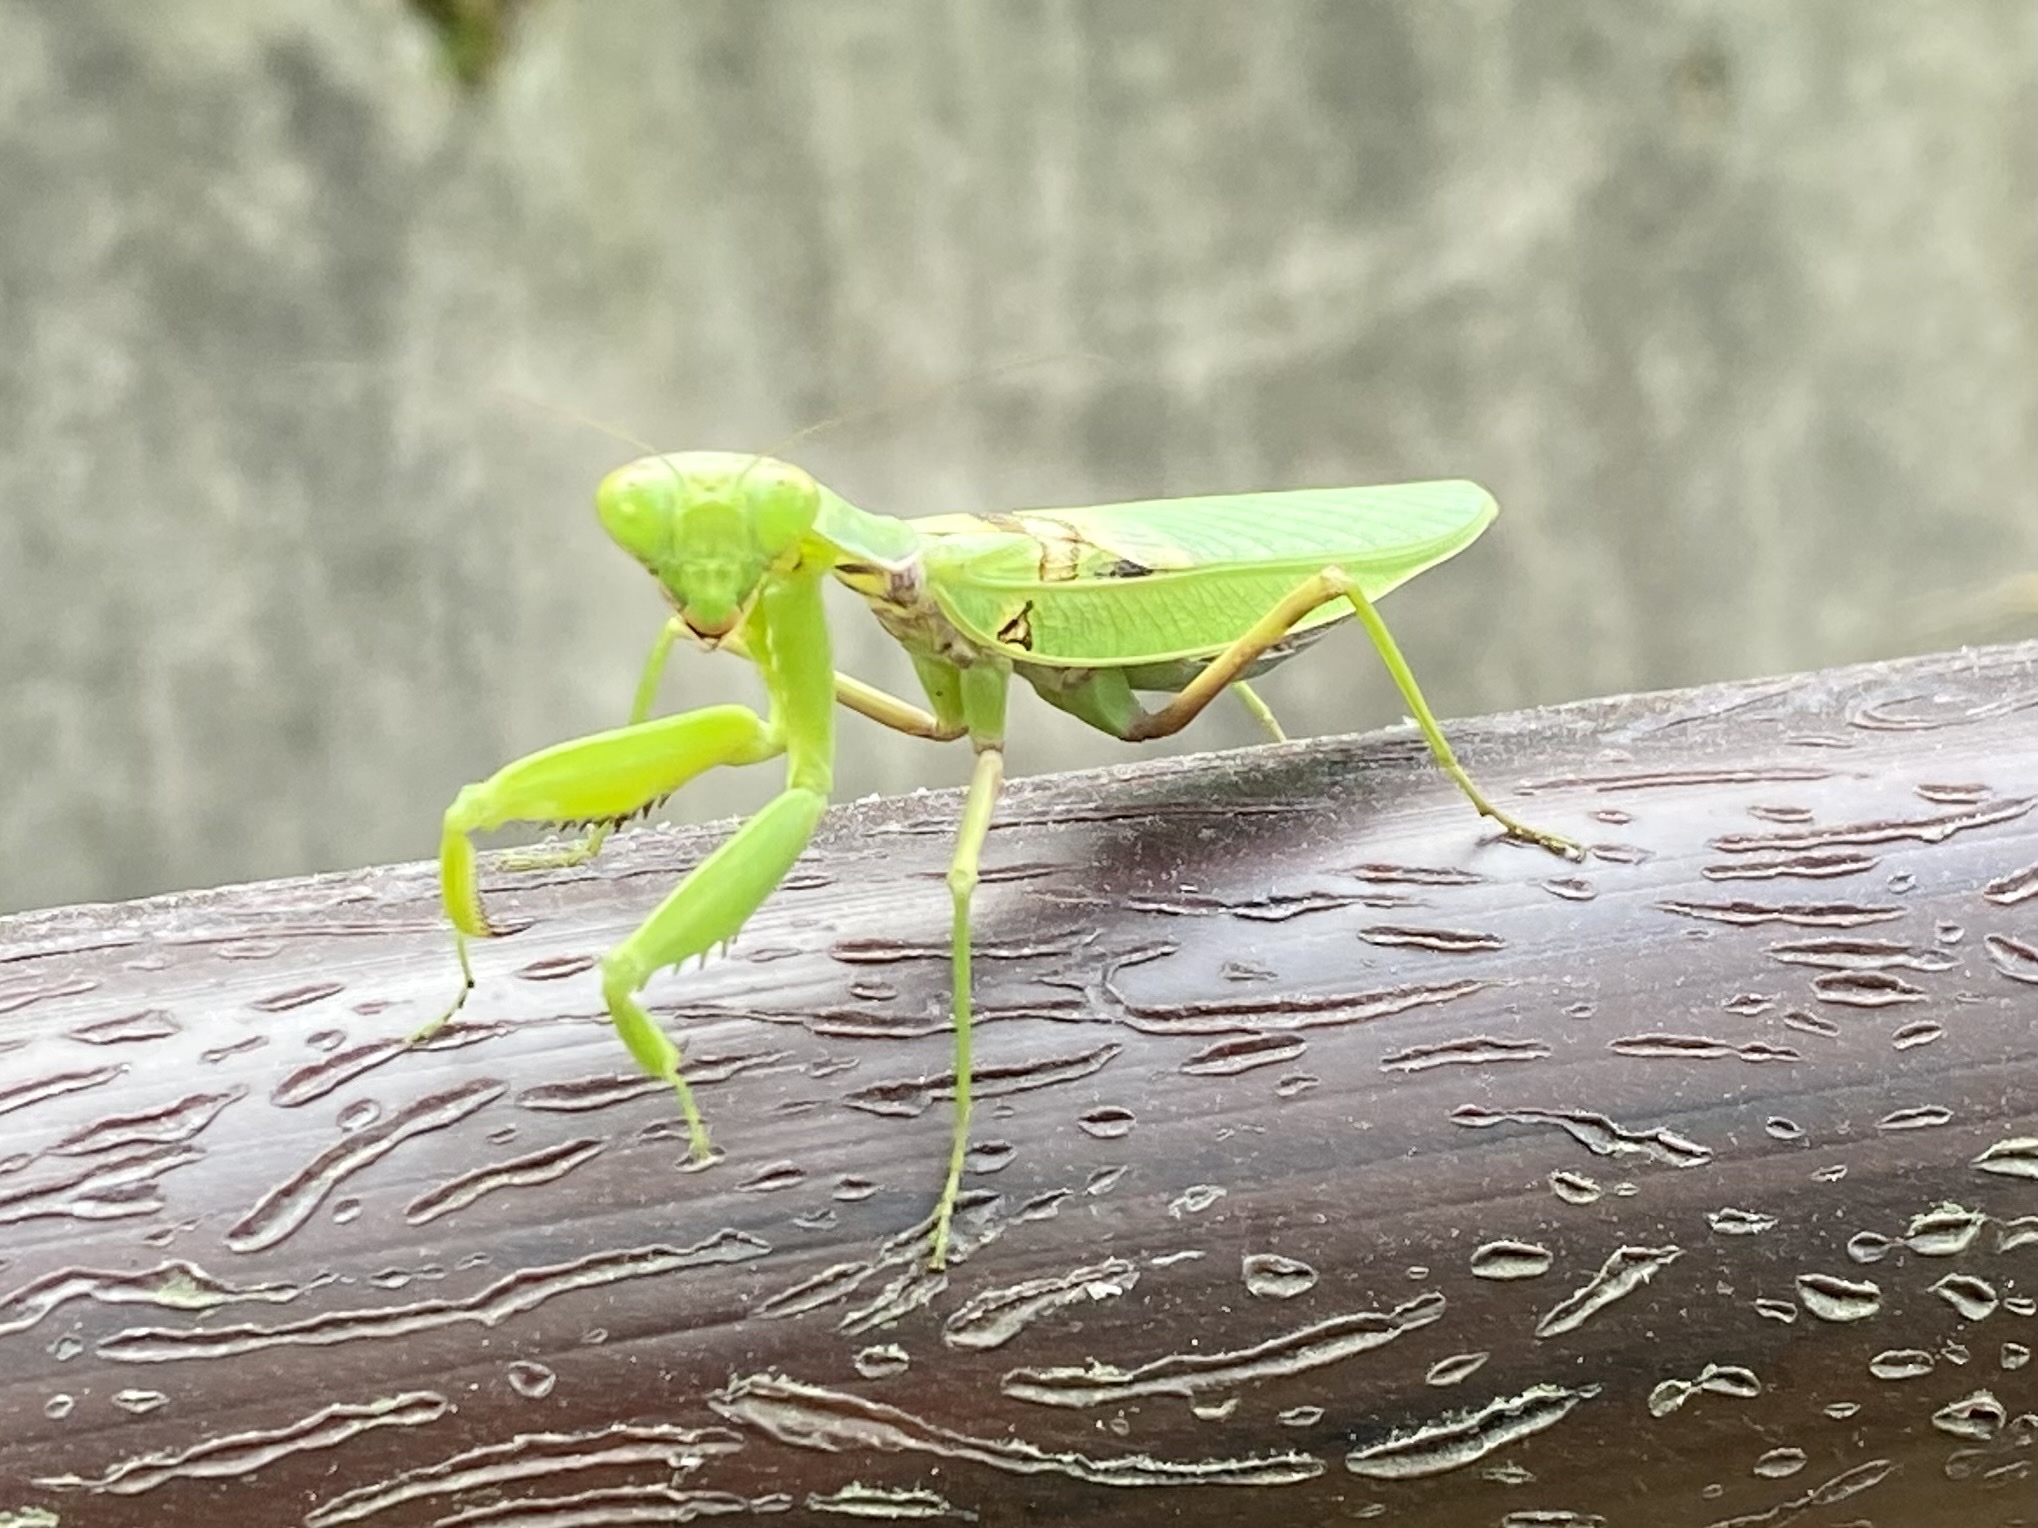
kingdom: Animalia
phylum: Arthropoda
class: Insecta
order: Mantodea
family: Mantidae
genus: Hierodula
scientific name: Hierodula patellifera
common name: Asian mantis
